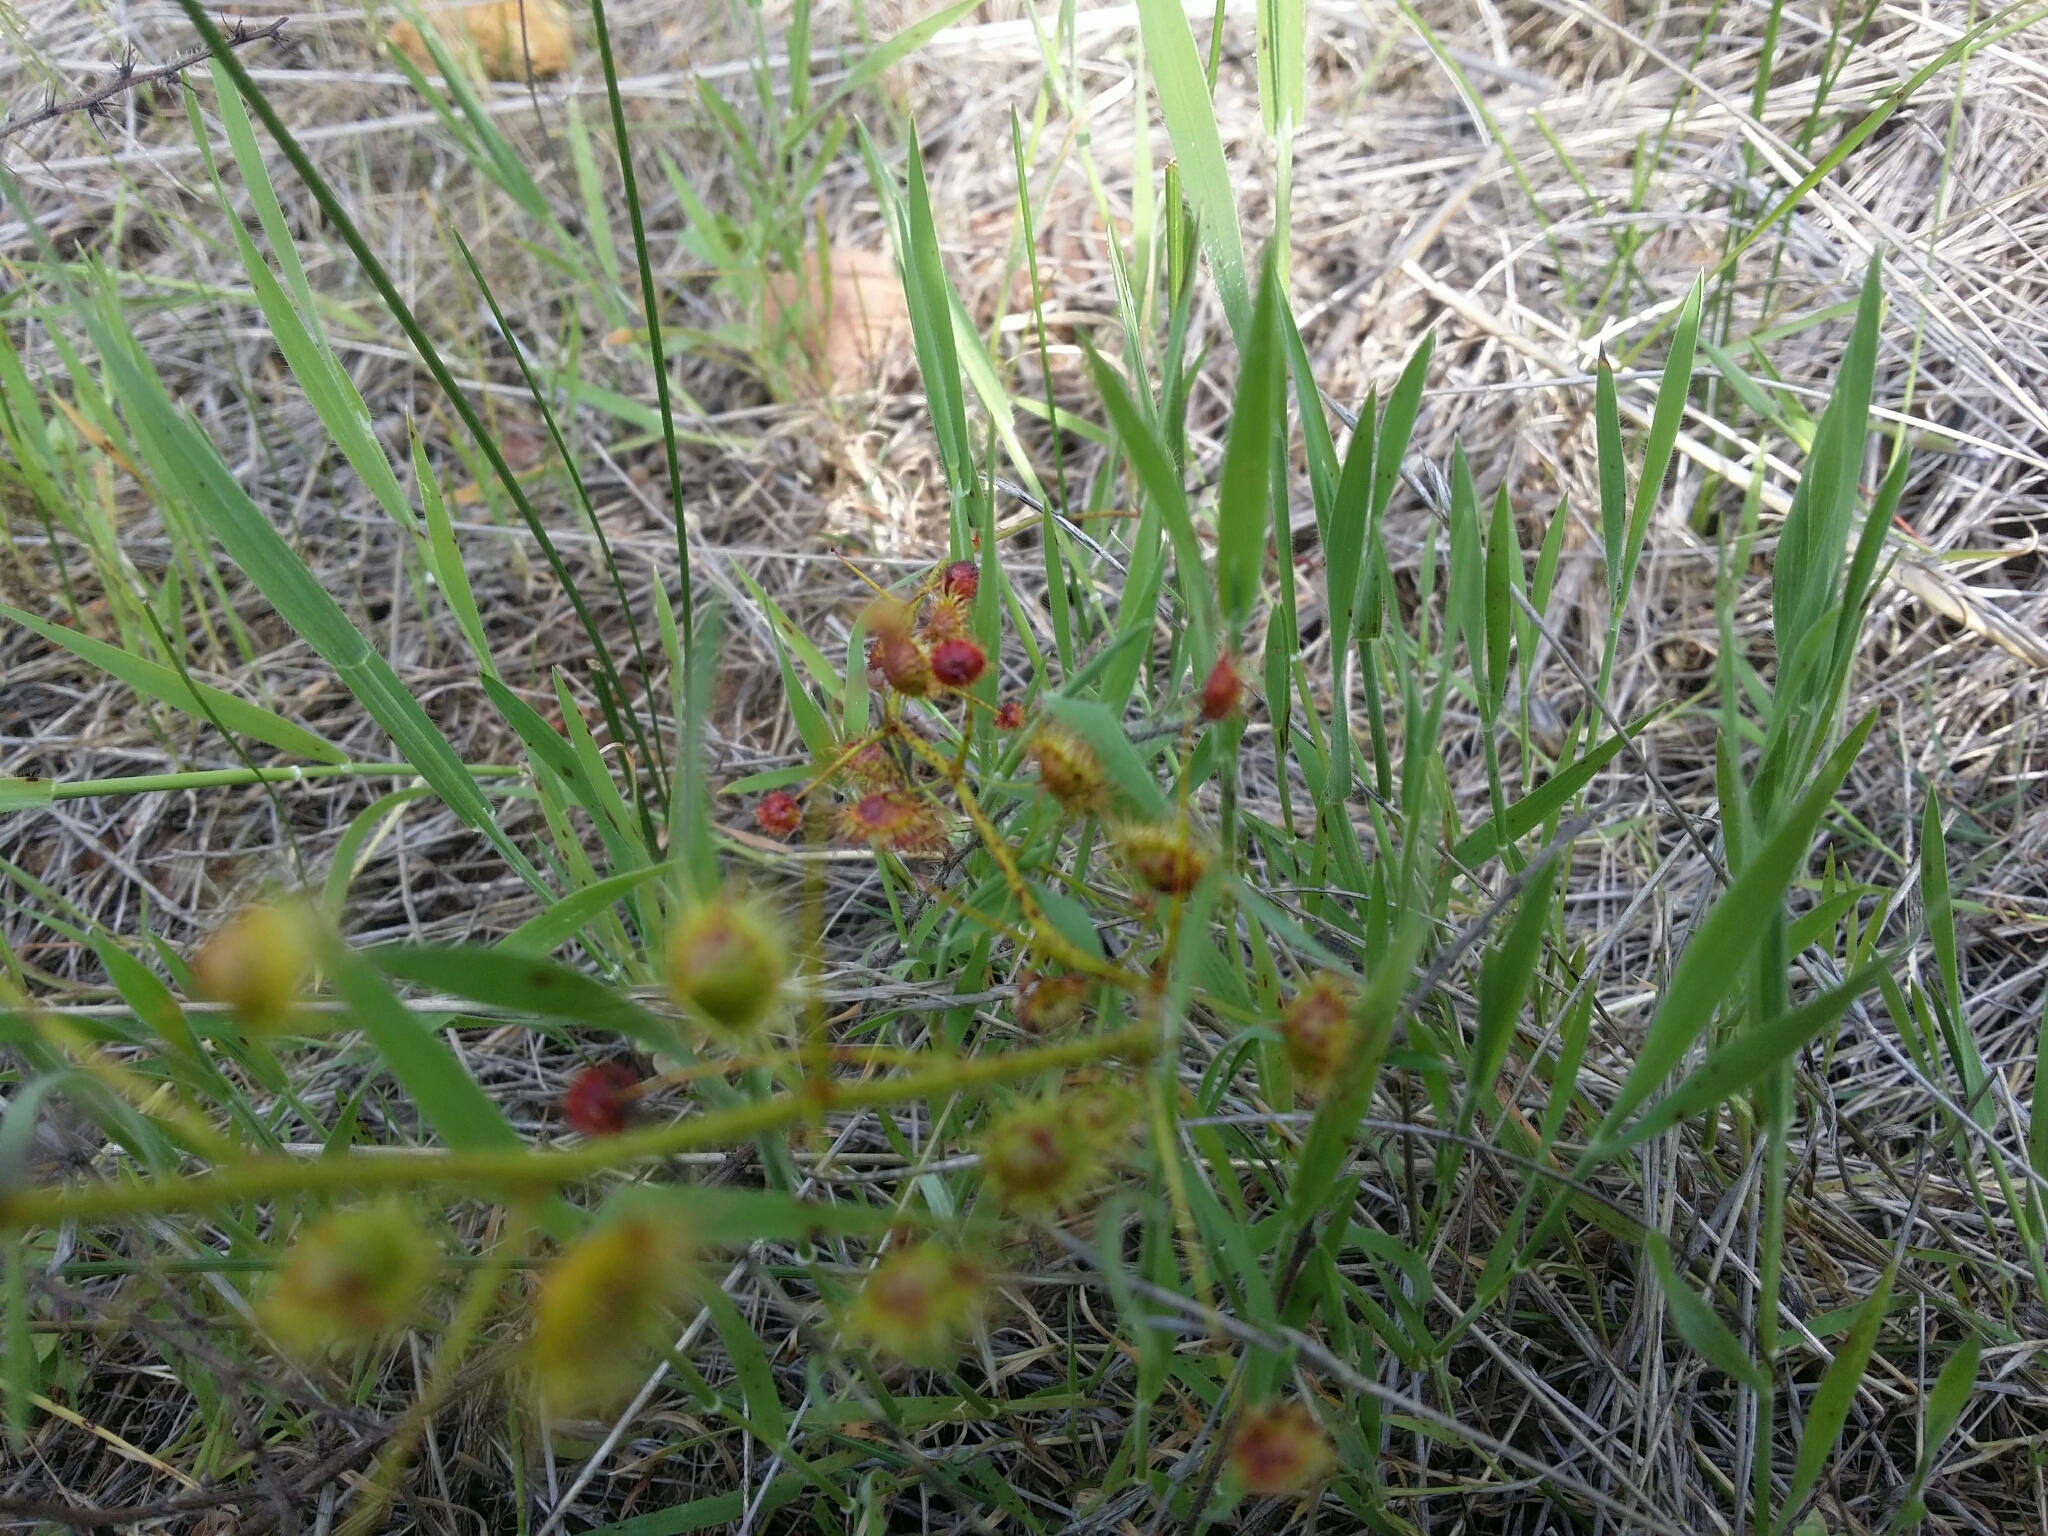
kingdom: Plantae
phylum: Tracheophyta
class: Magnoliopsida
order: Caryophyllales
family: Droseraceae
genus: Drosera
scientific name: Drosera macrantha
